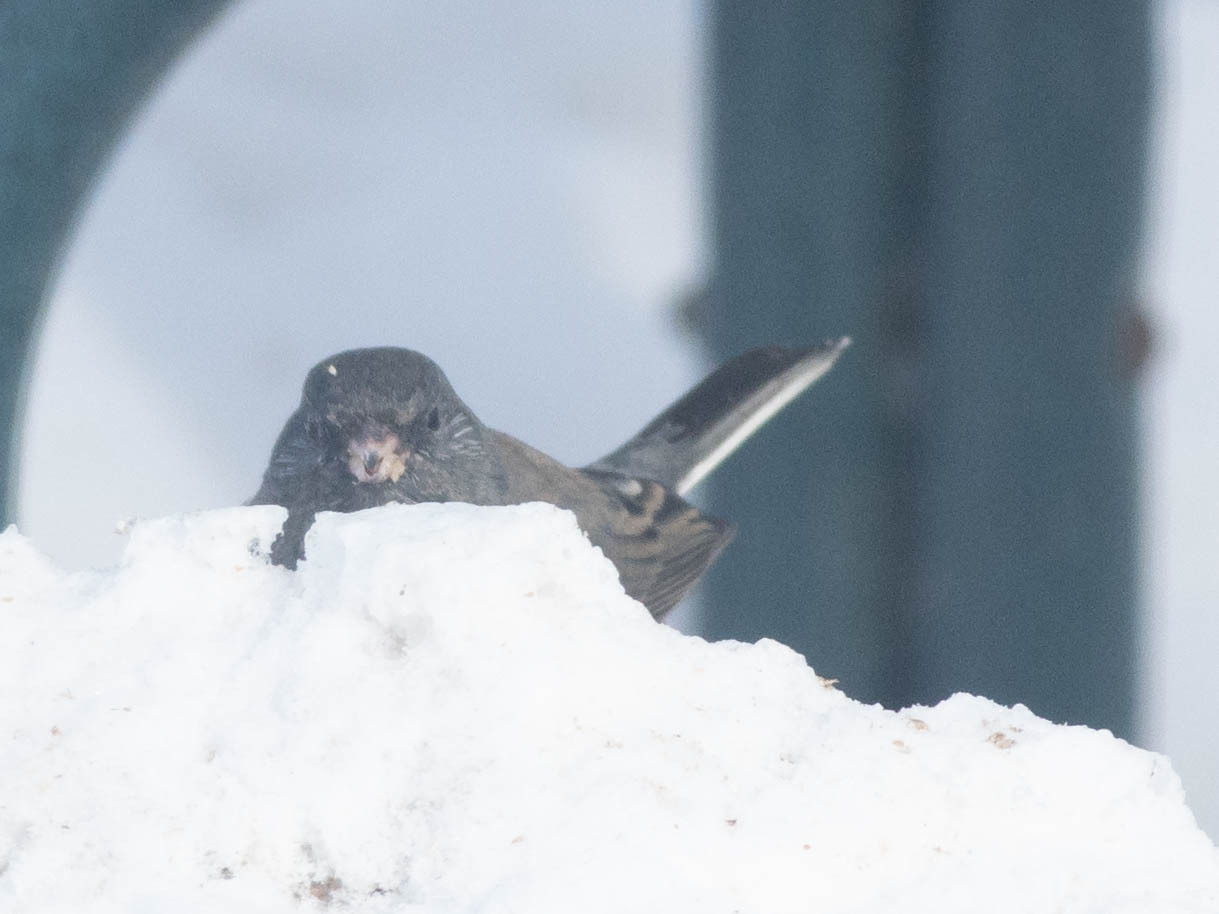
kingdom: Animalia
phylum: Chordata
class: Aves
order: Passeriformes
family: Passerellidae
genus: Junco
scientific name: Junco hyemalis
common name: Dark-eyed junco
